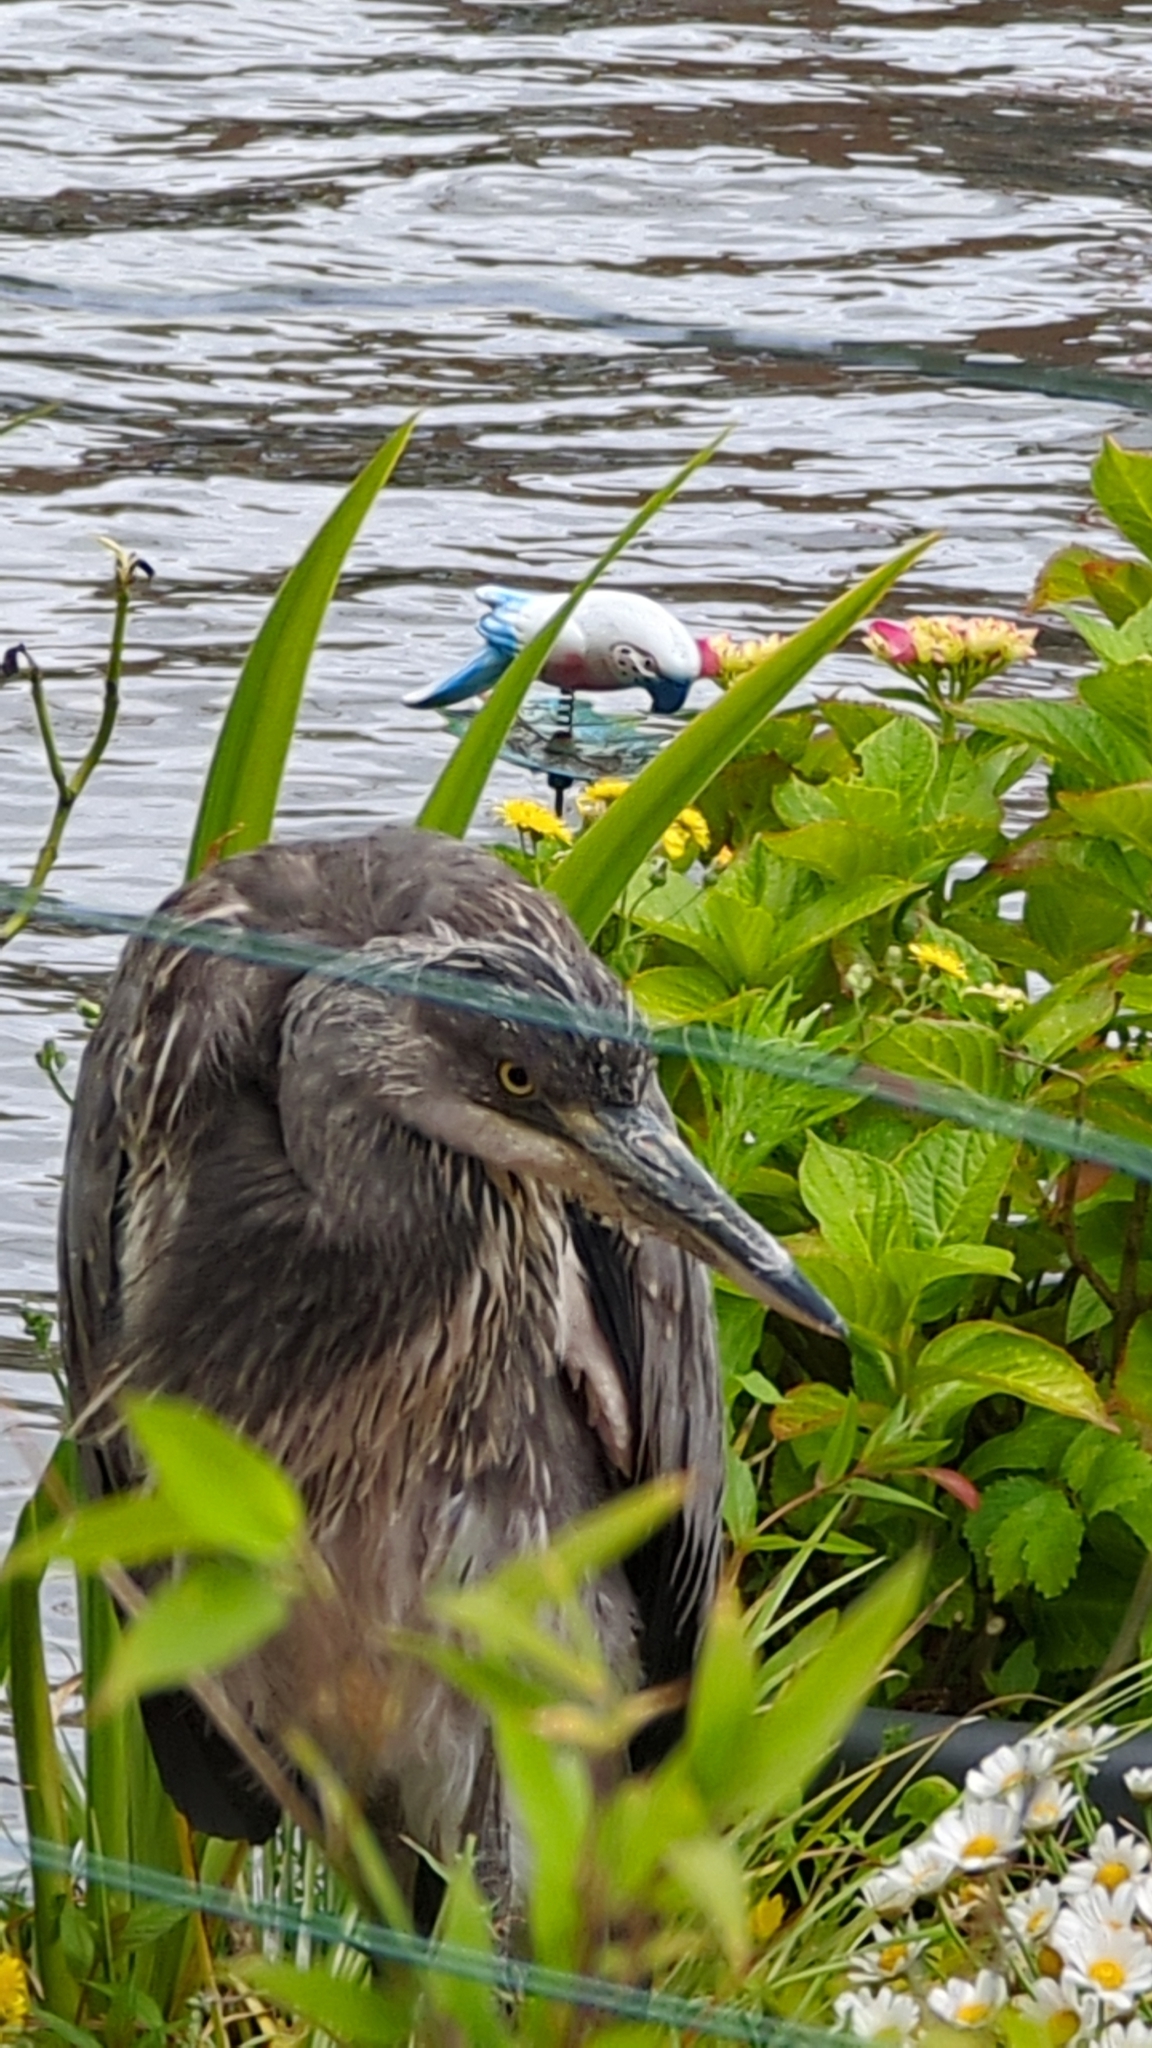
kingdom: Animalia
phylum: Chordata
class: Aves
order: Pelecaniformes
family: Ardeidae
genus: Ardea
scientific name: Ardea cinerea
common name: Grey heron
